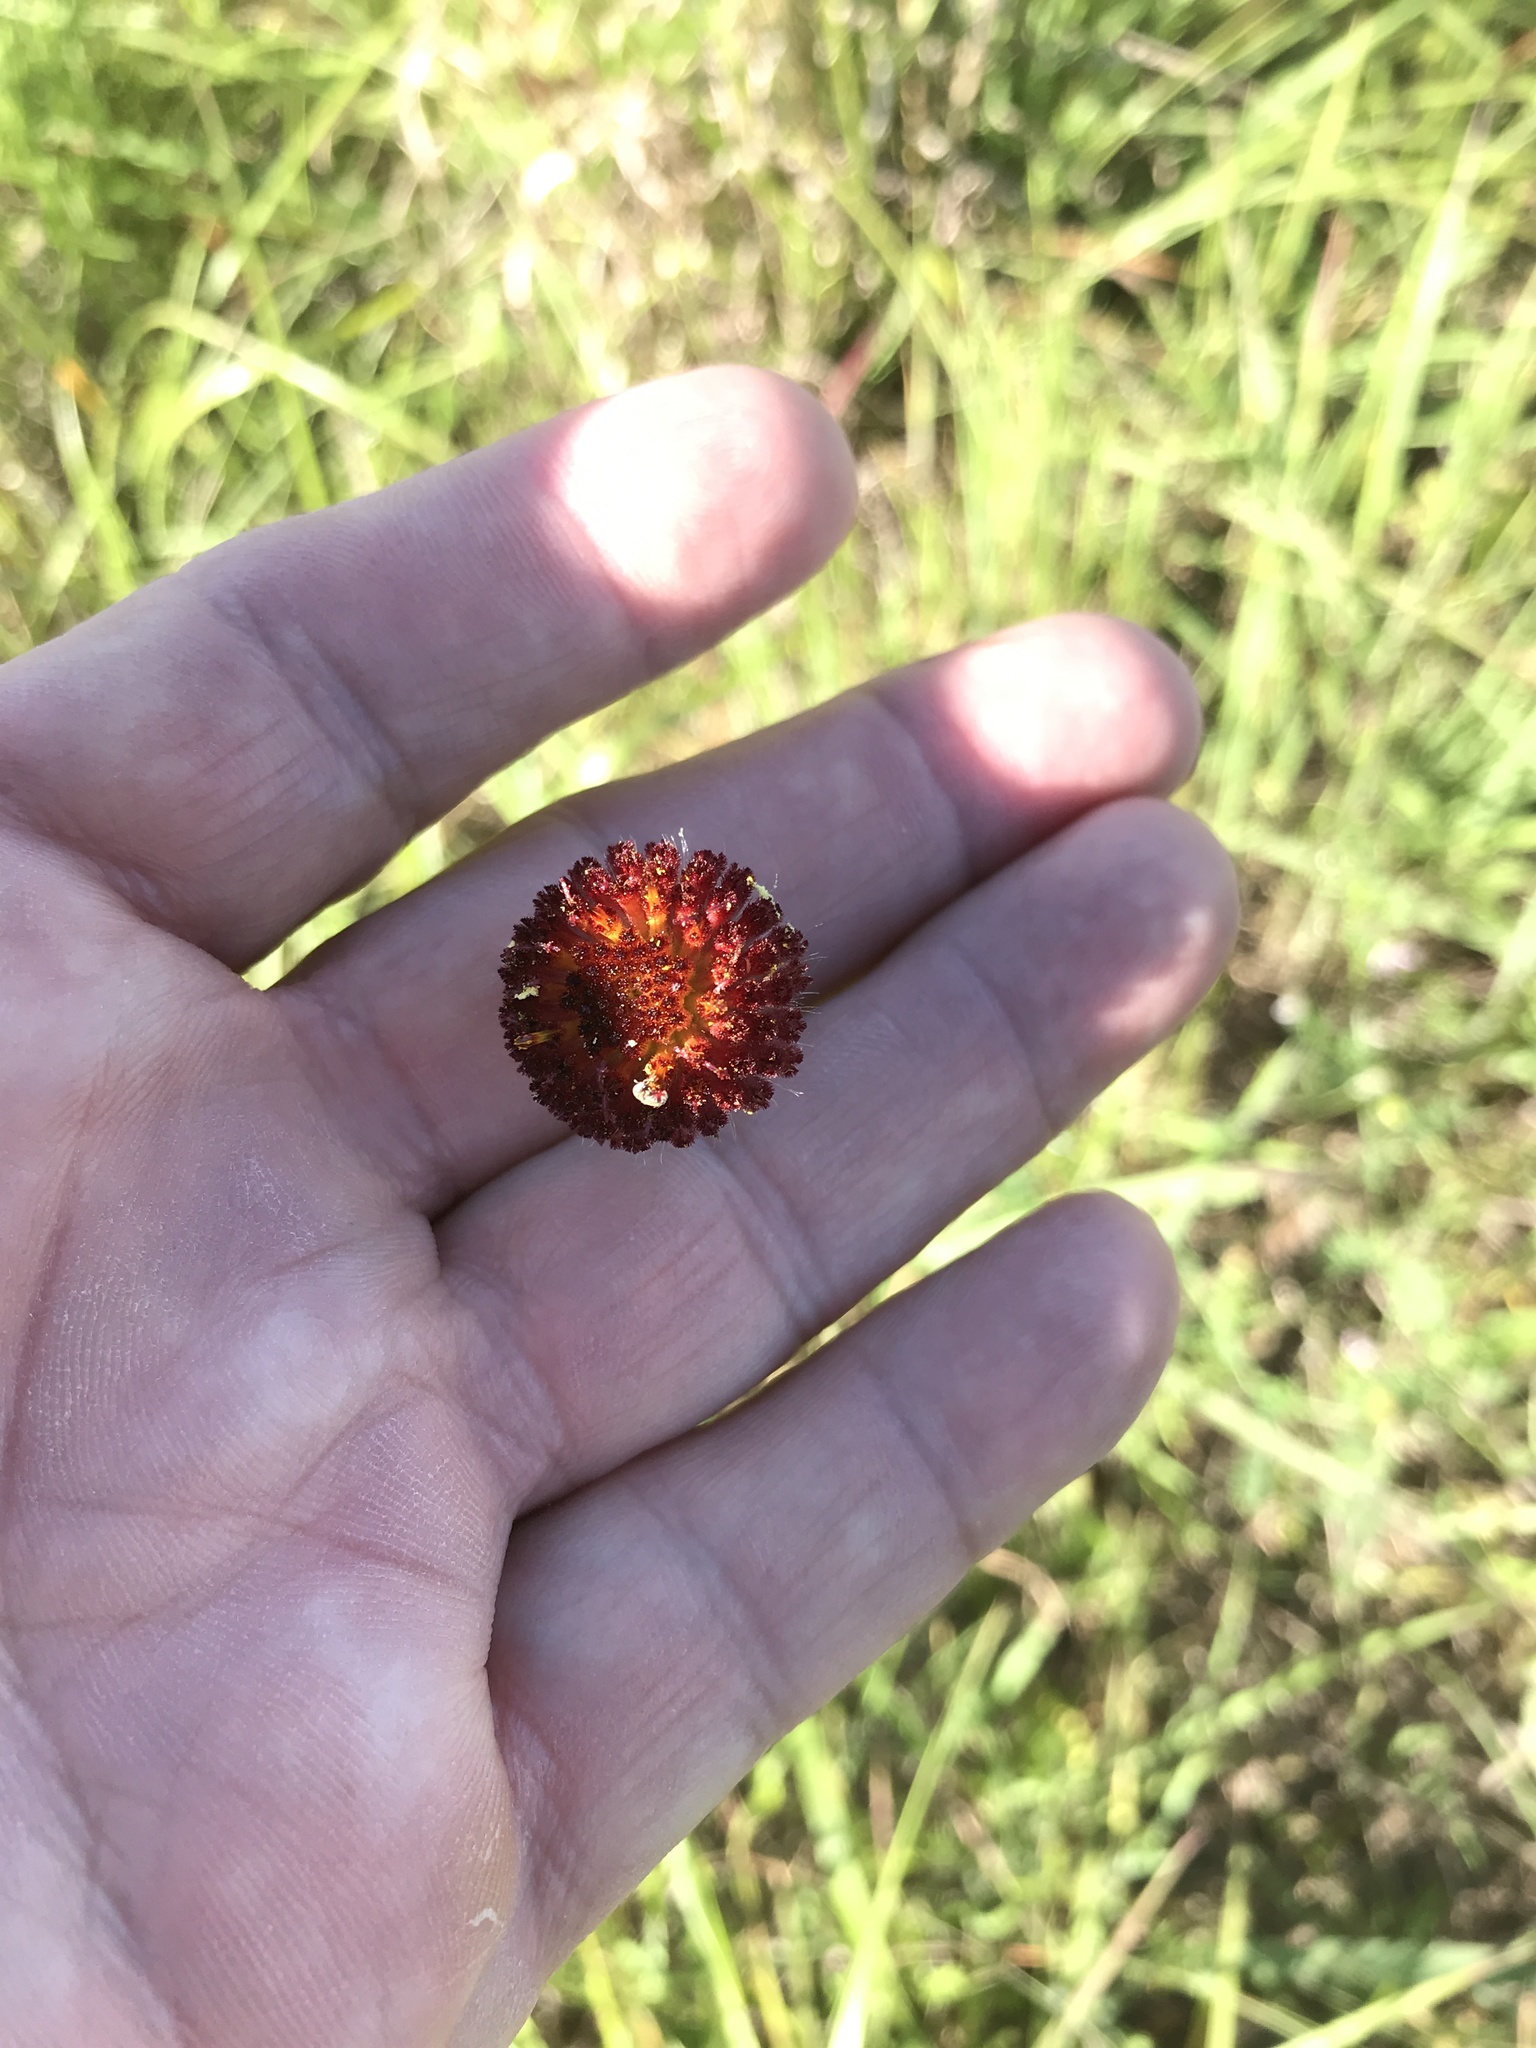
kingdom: Plantae
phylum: Tracheophyta
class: Magnoliopsida
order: Asterales
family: Asteraceae
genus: Gaillardia
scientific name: Gaillardia suavis
